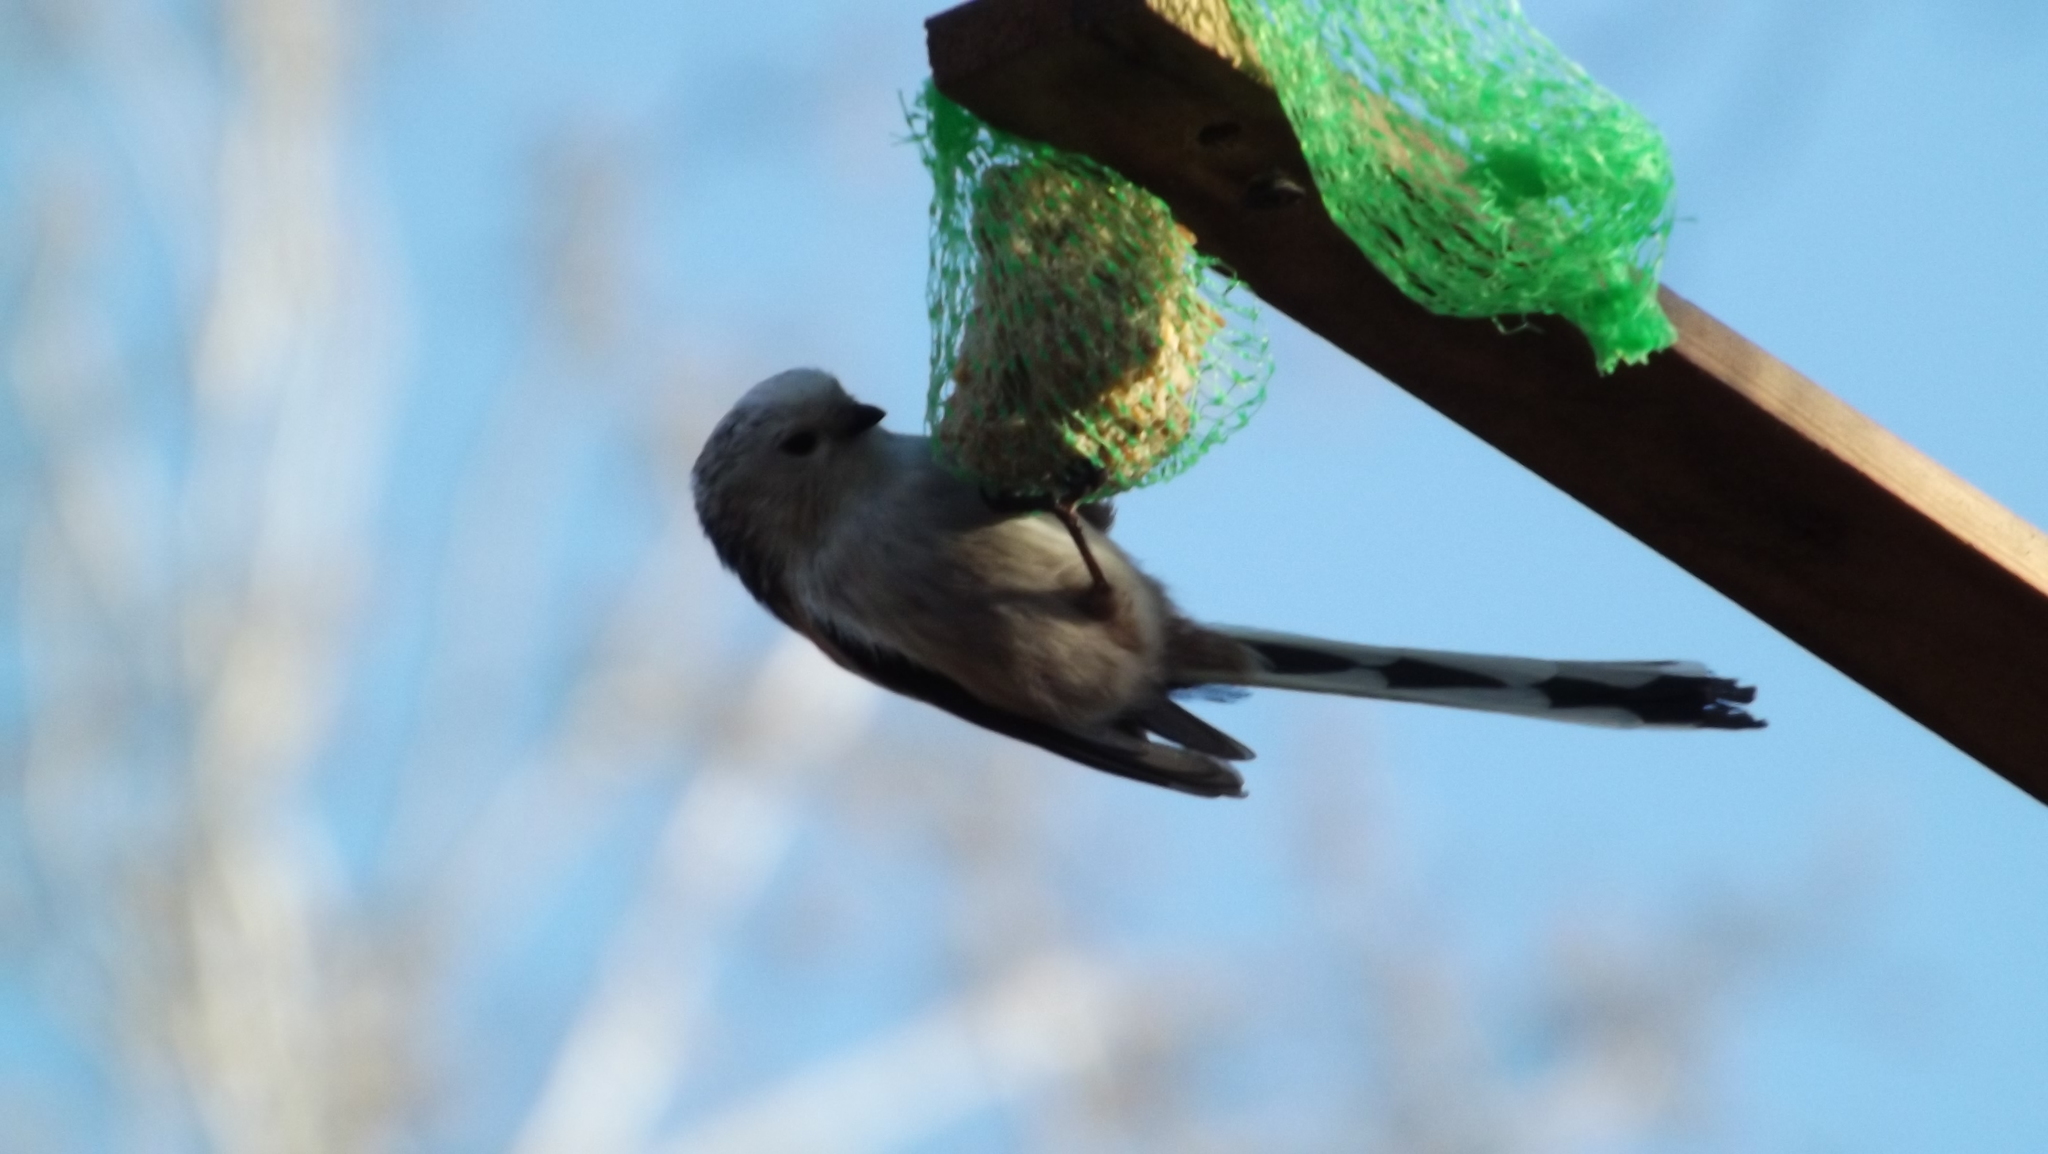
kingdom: Animalia
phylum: Chordata
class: Aves
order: Passeriformes
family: Aegithalidae
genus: Aegithalos
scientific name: Aegithalos caudatus
